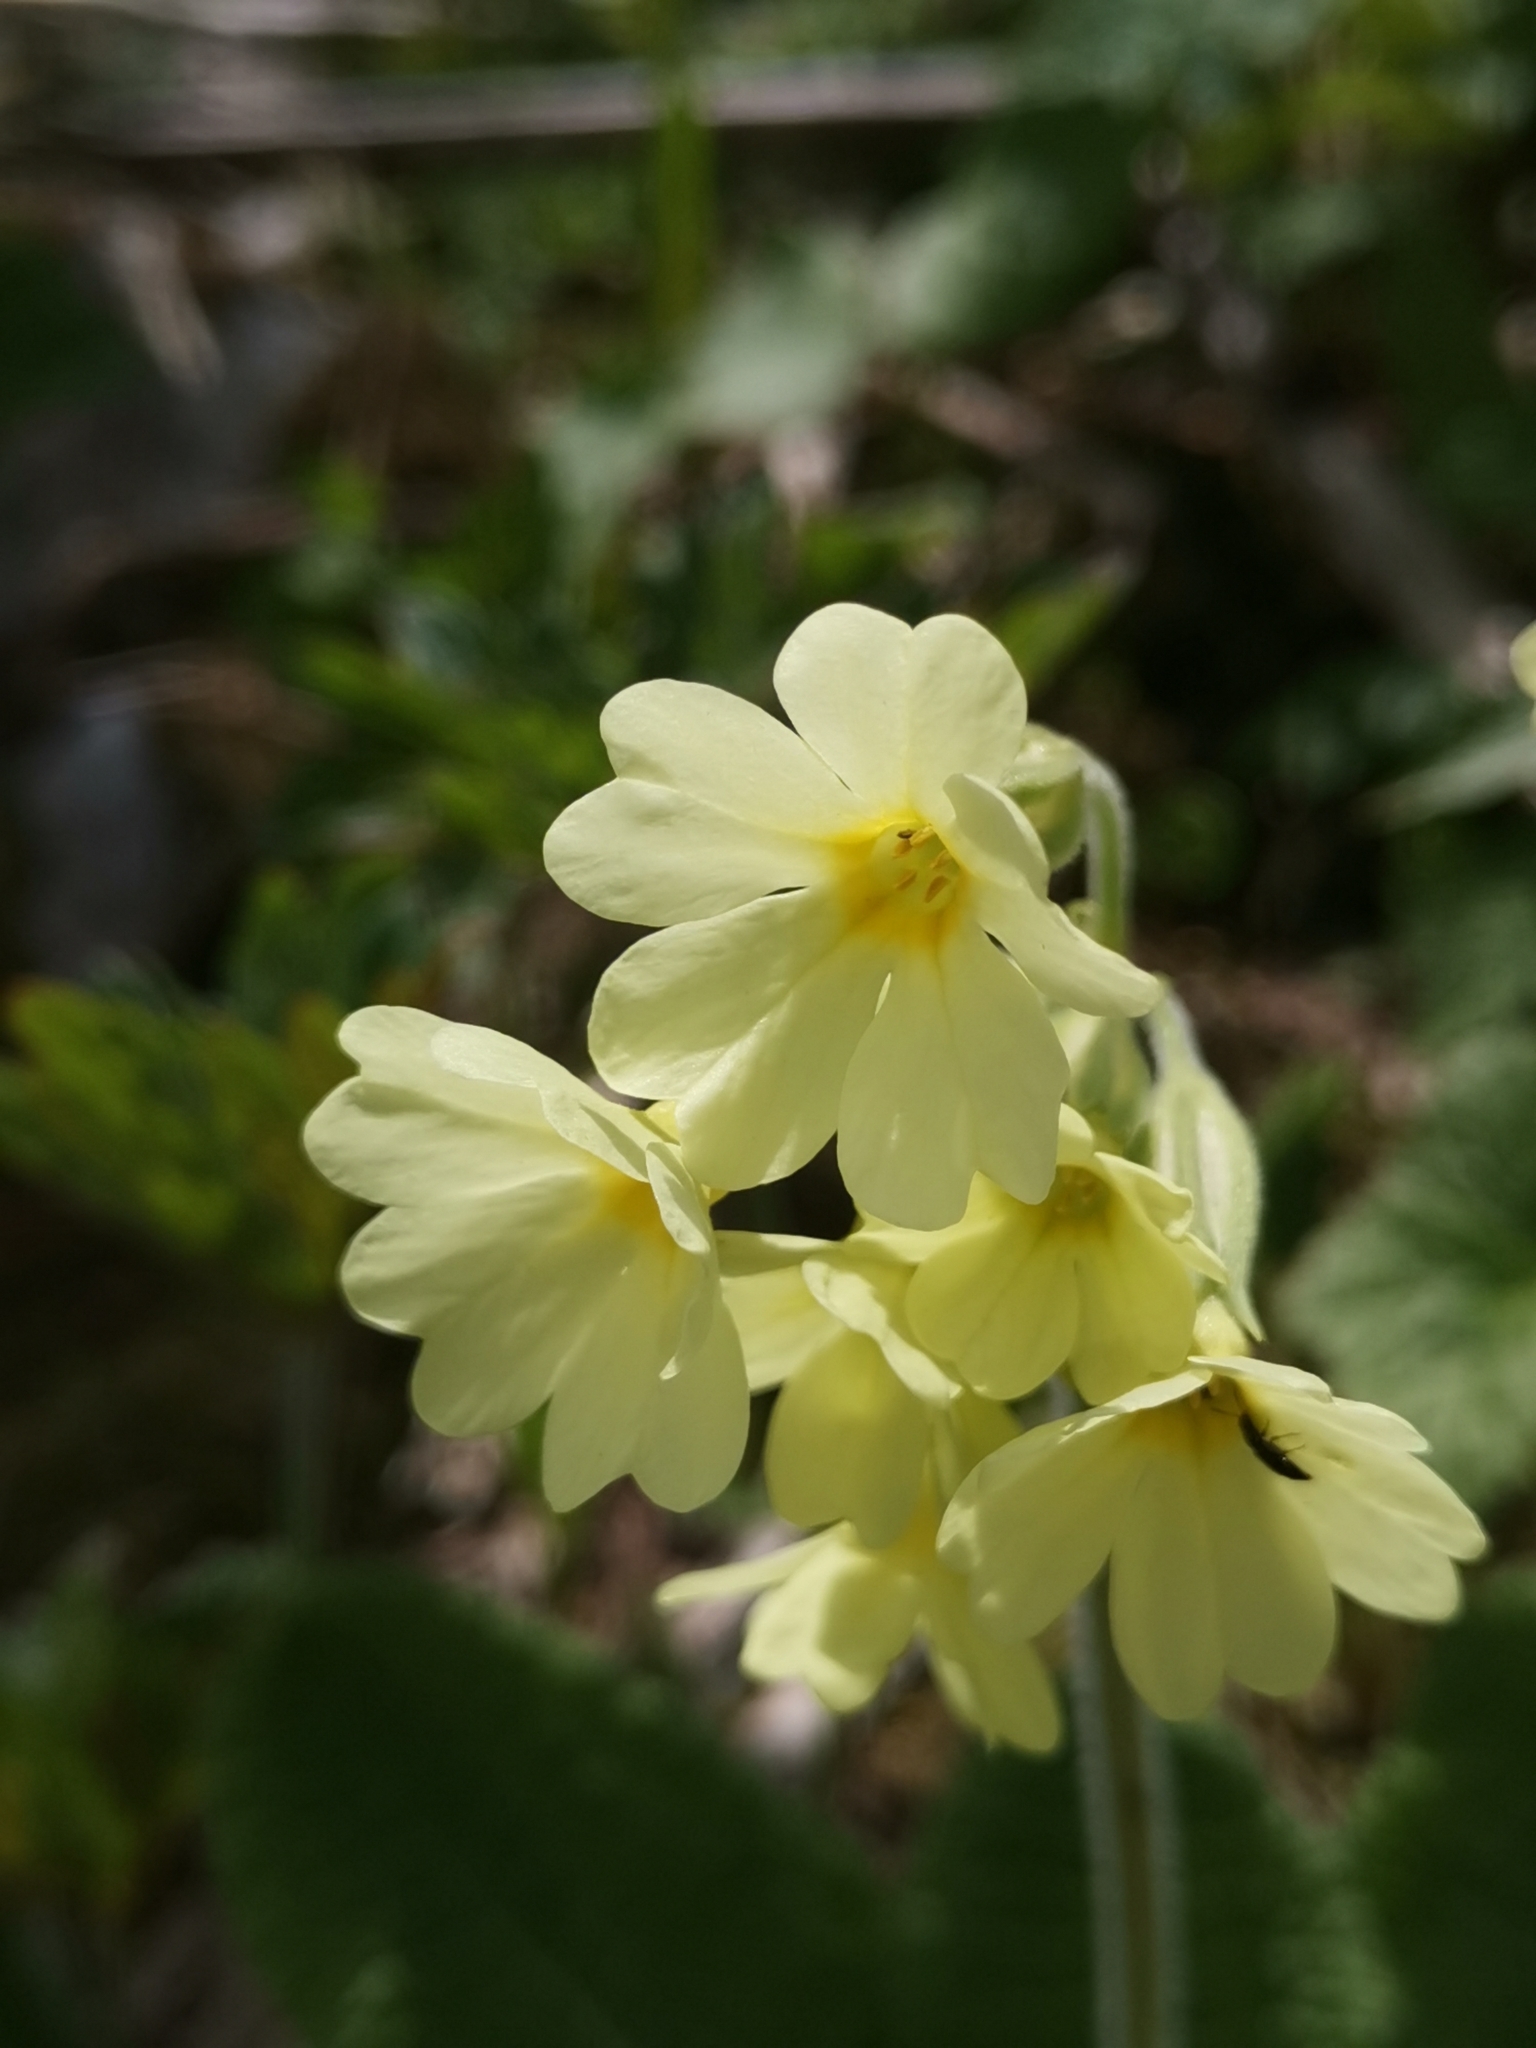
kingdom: Plantae
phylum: Tracheophyta
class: Magnoliopsida
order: Ericales
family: Primulaceae
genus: Primula
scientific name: Primula elatior
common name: Oxlip
